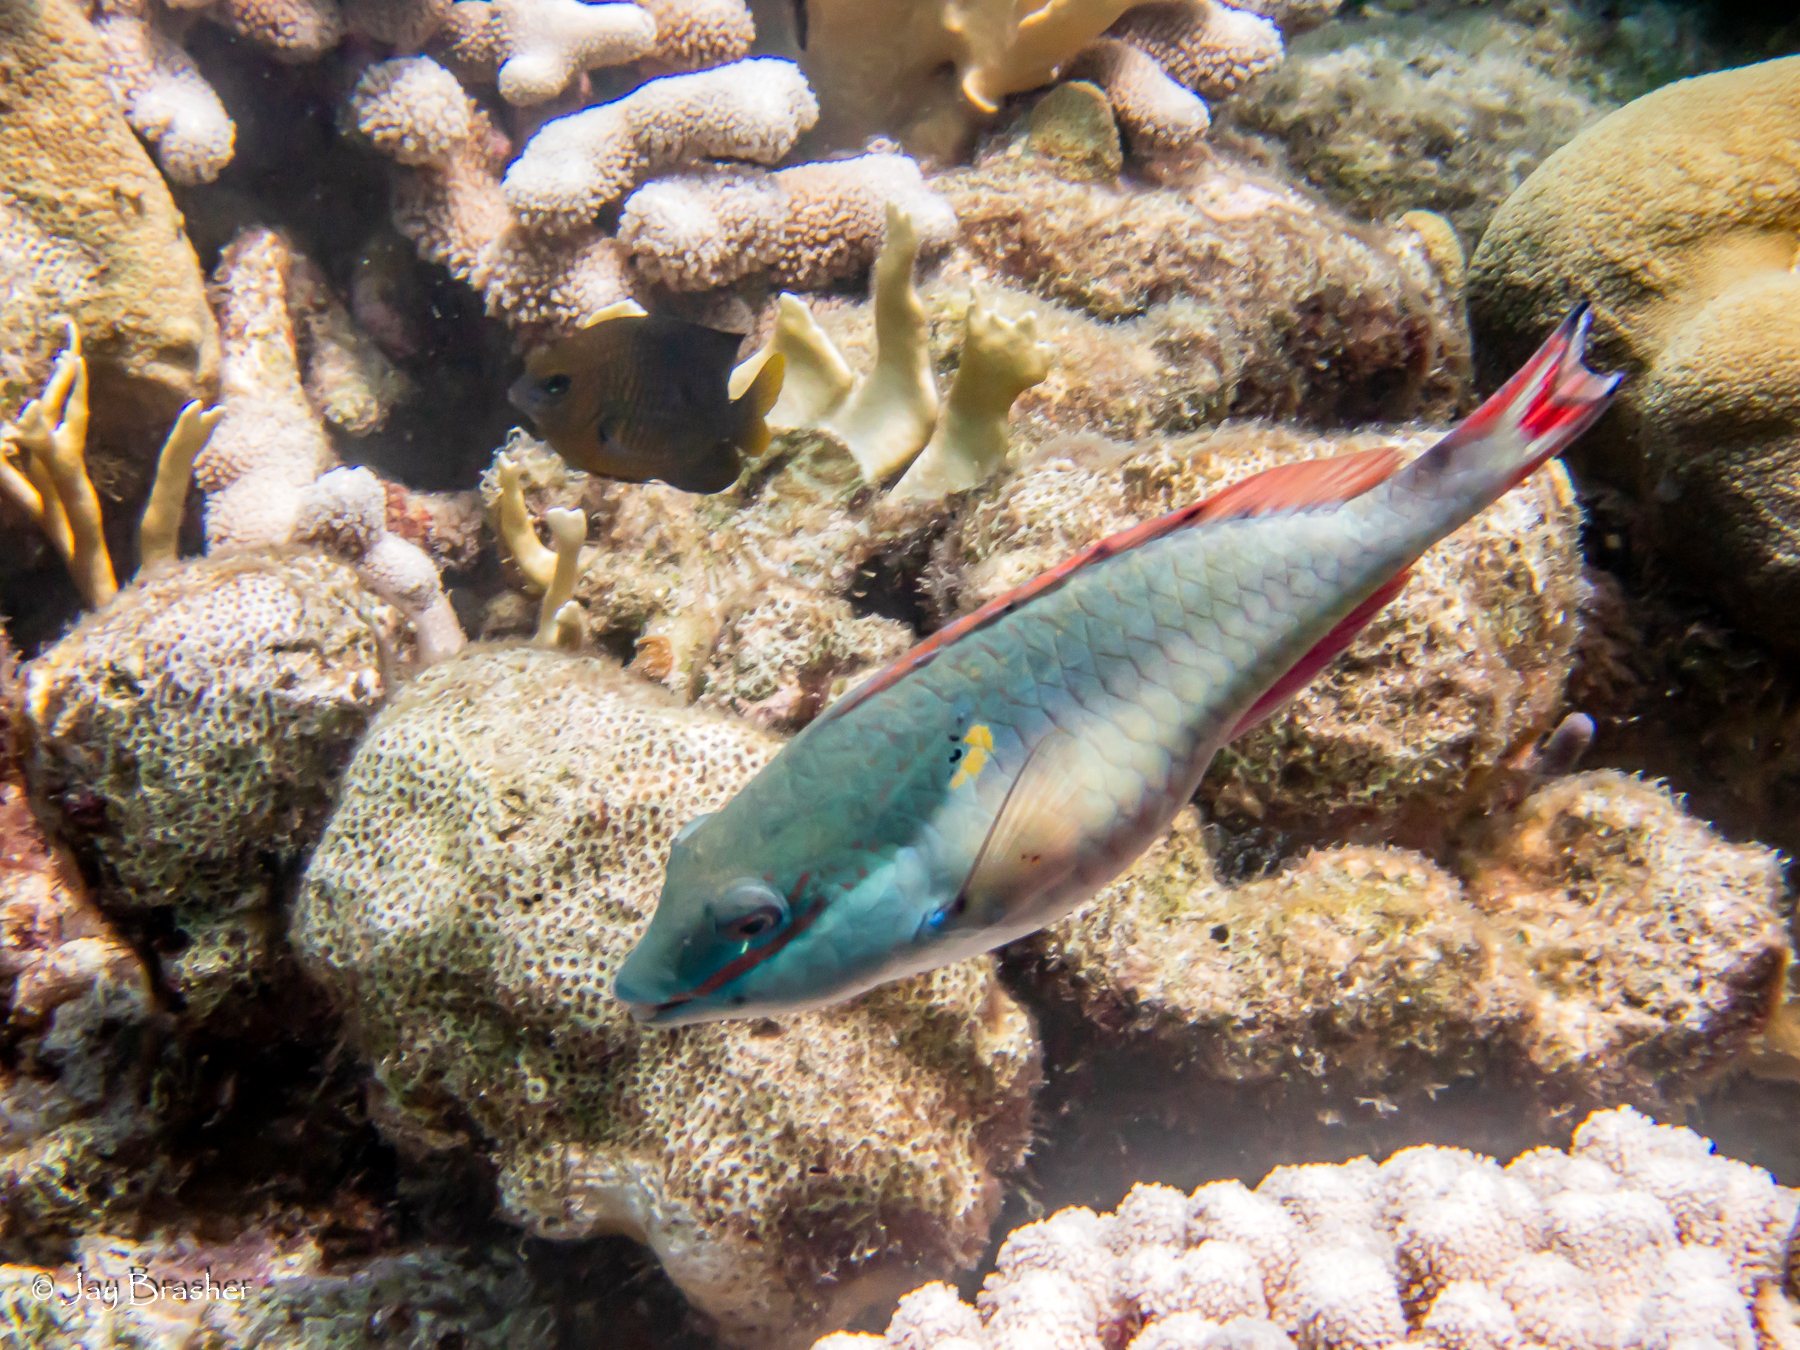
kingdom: Animalia
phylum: Chordata
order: Perciformes
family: Scaridae
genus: Sparisoma
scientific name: Sparisoma aurofrenatum
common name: Redband parrotfish
